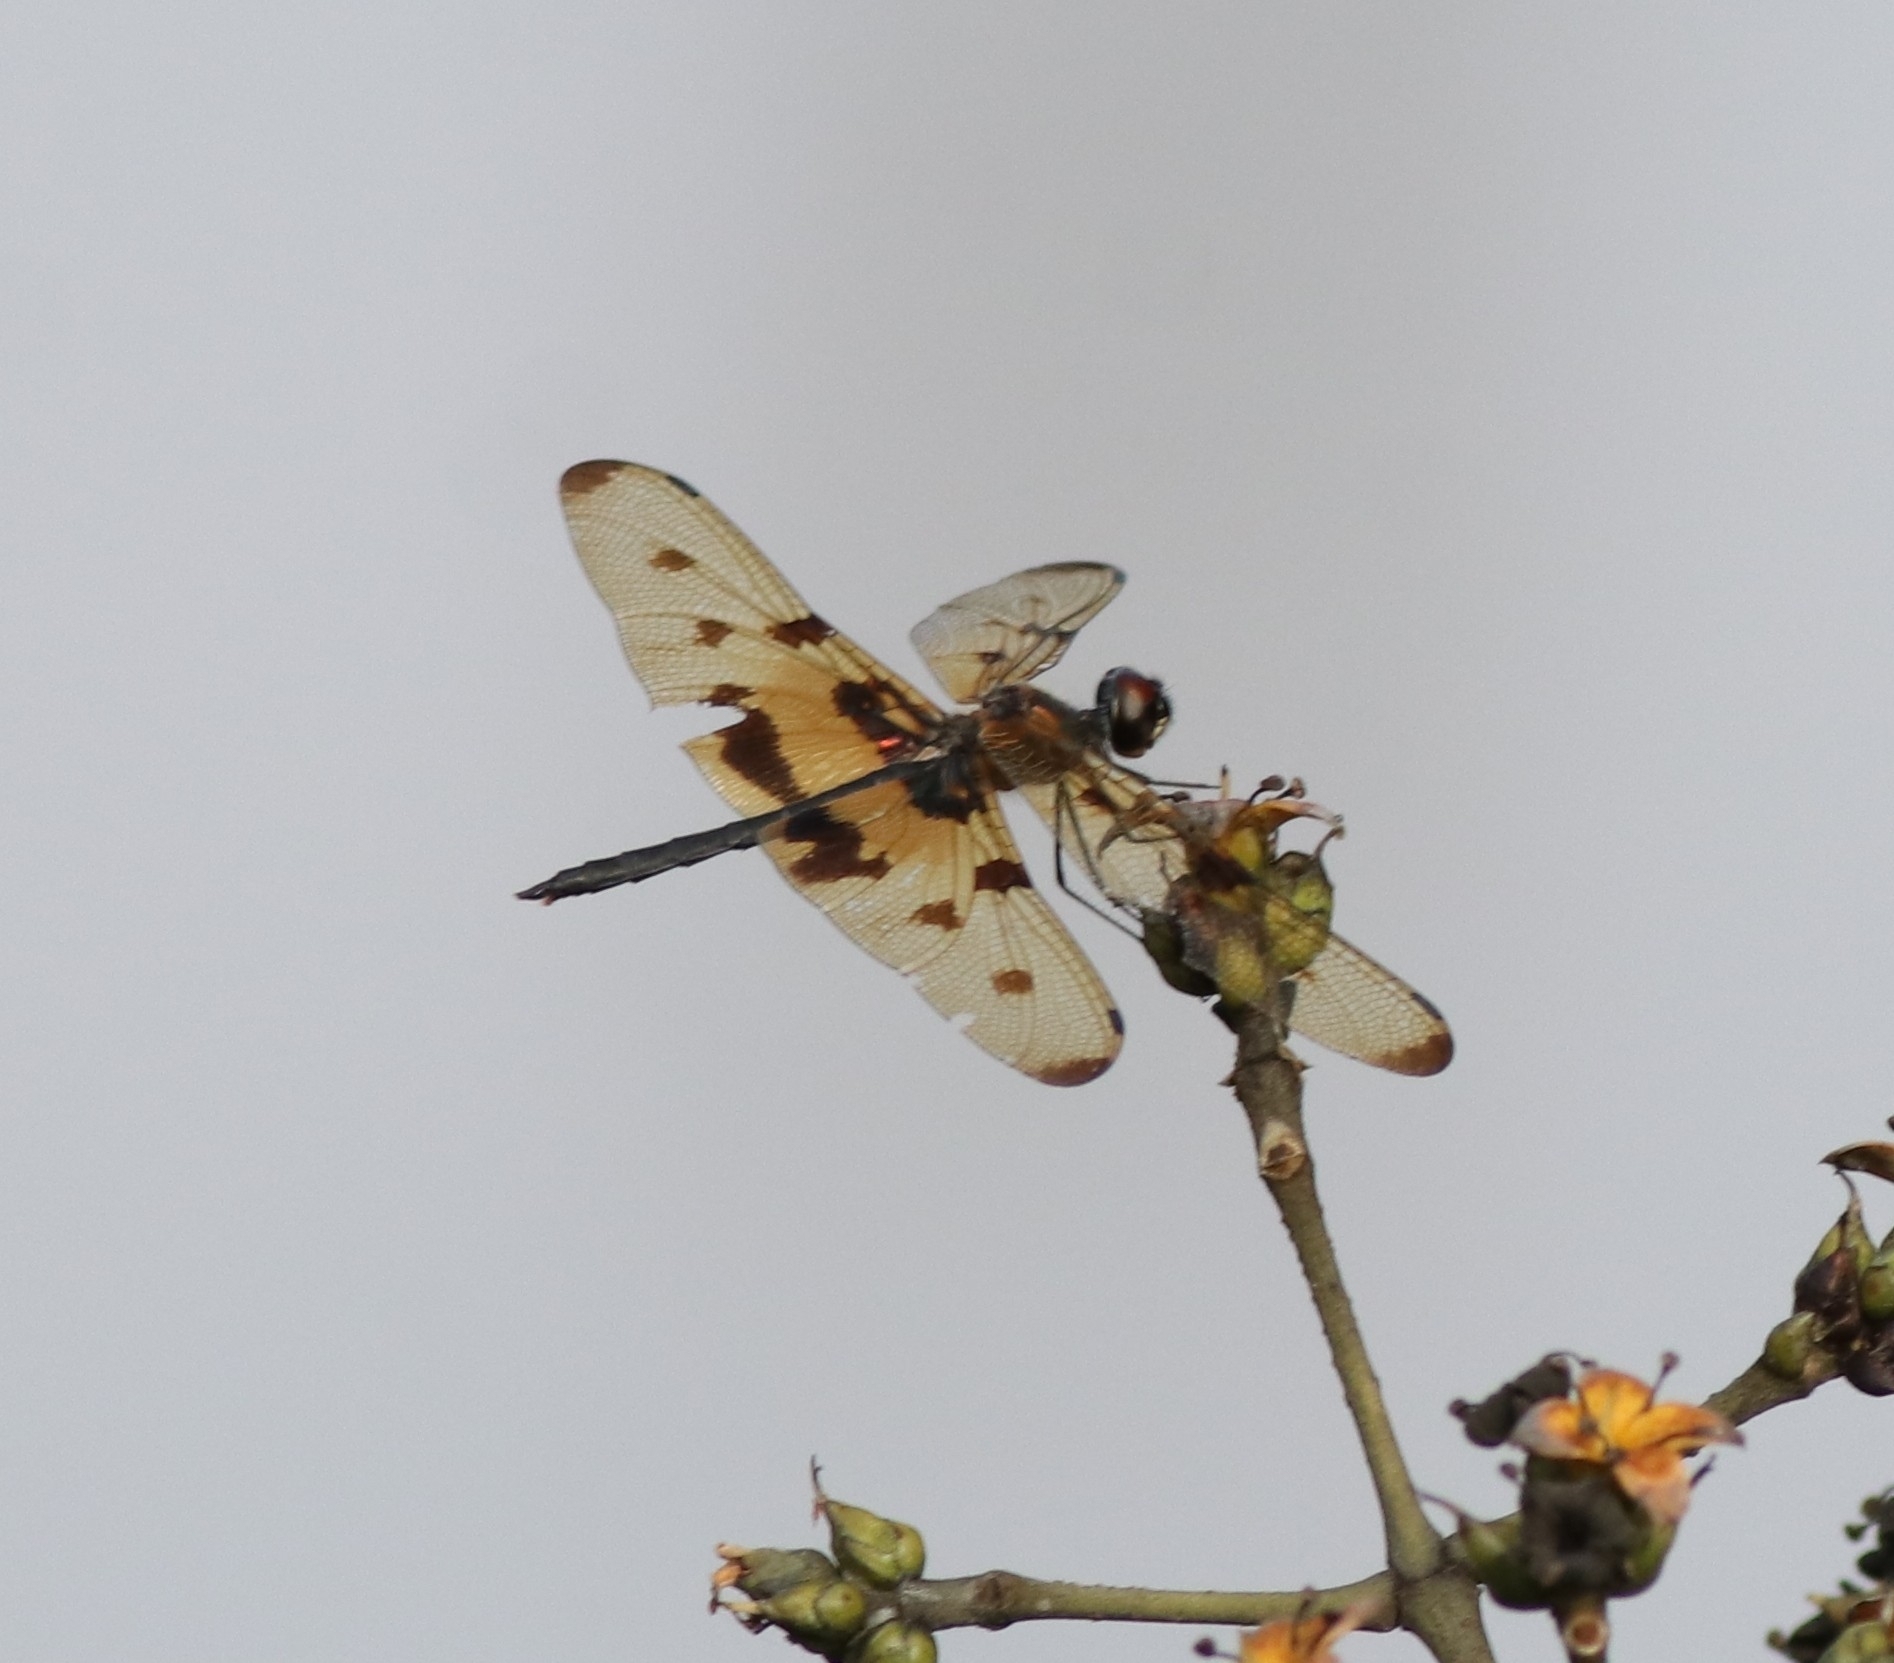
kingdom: Animalia
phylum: Arthropoda
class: Insecta
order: Odonata
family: Libellulidae
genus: Rhyothemis
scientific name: Rhyothemis variegata
